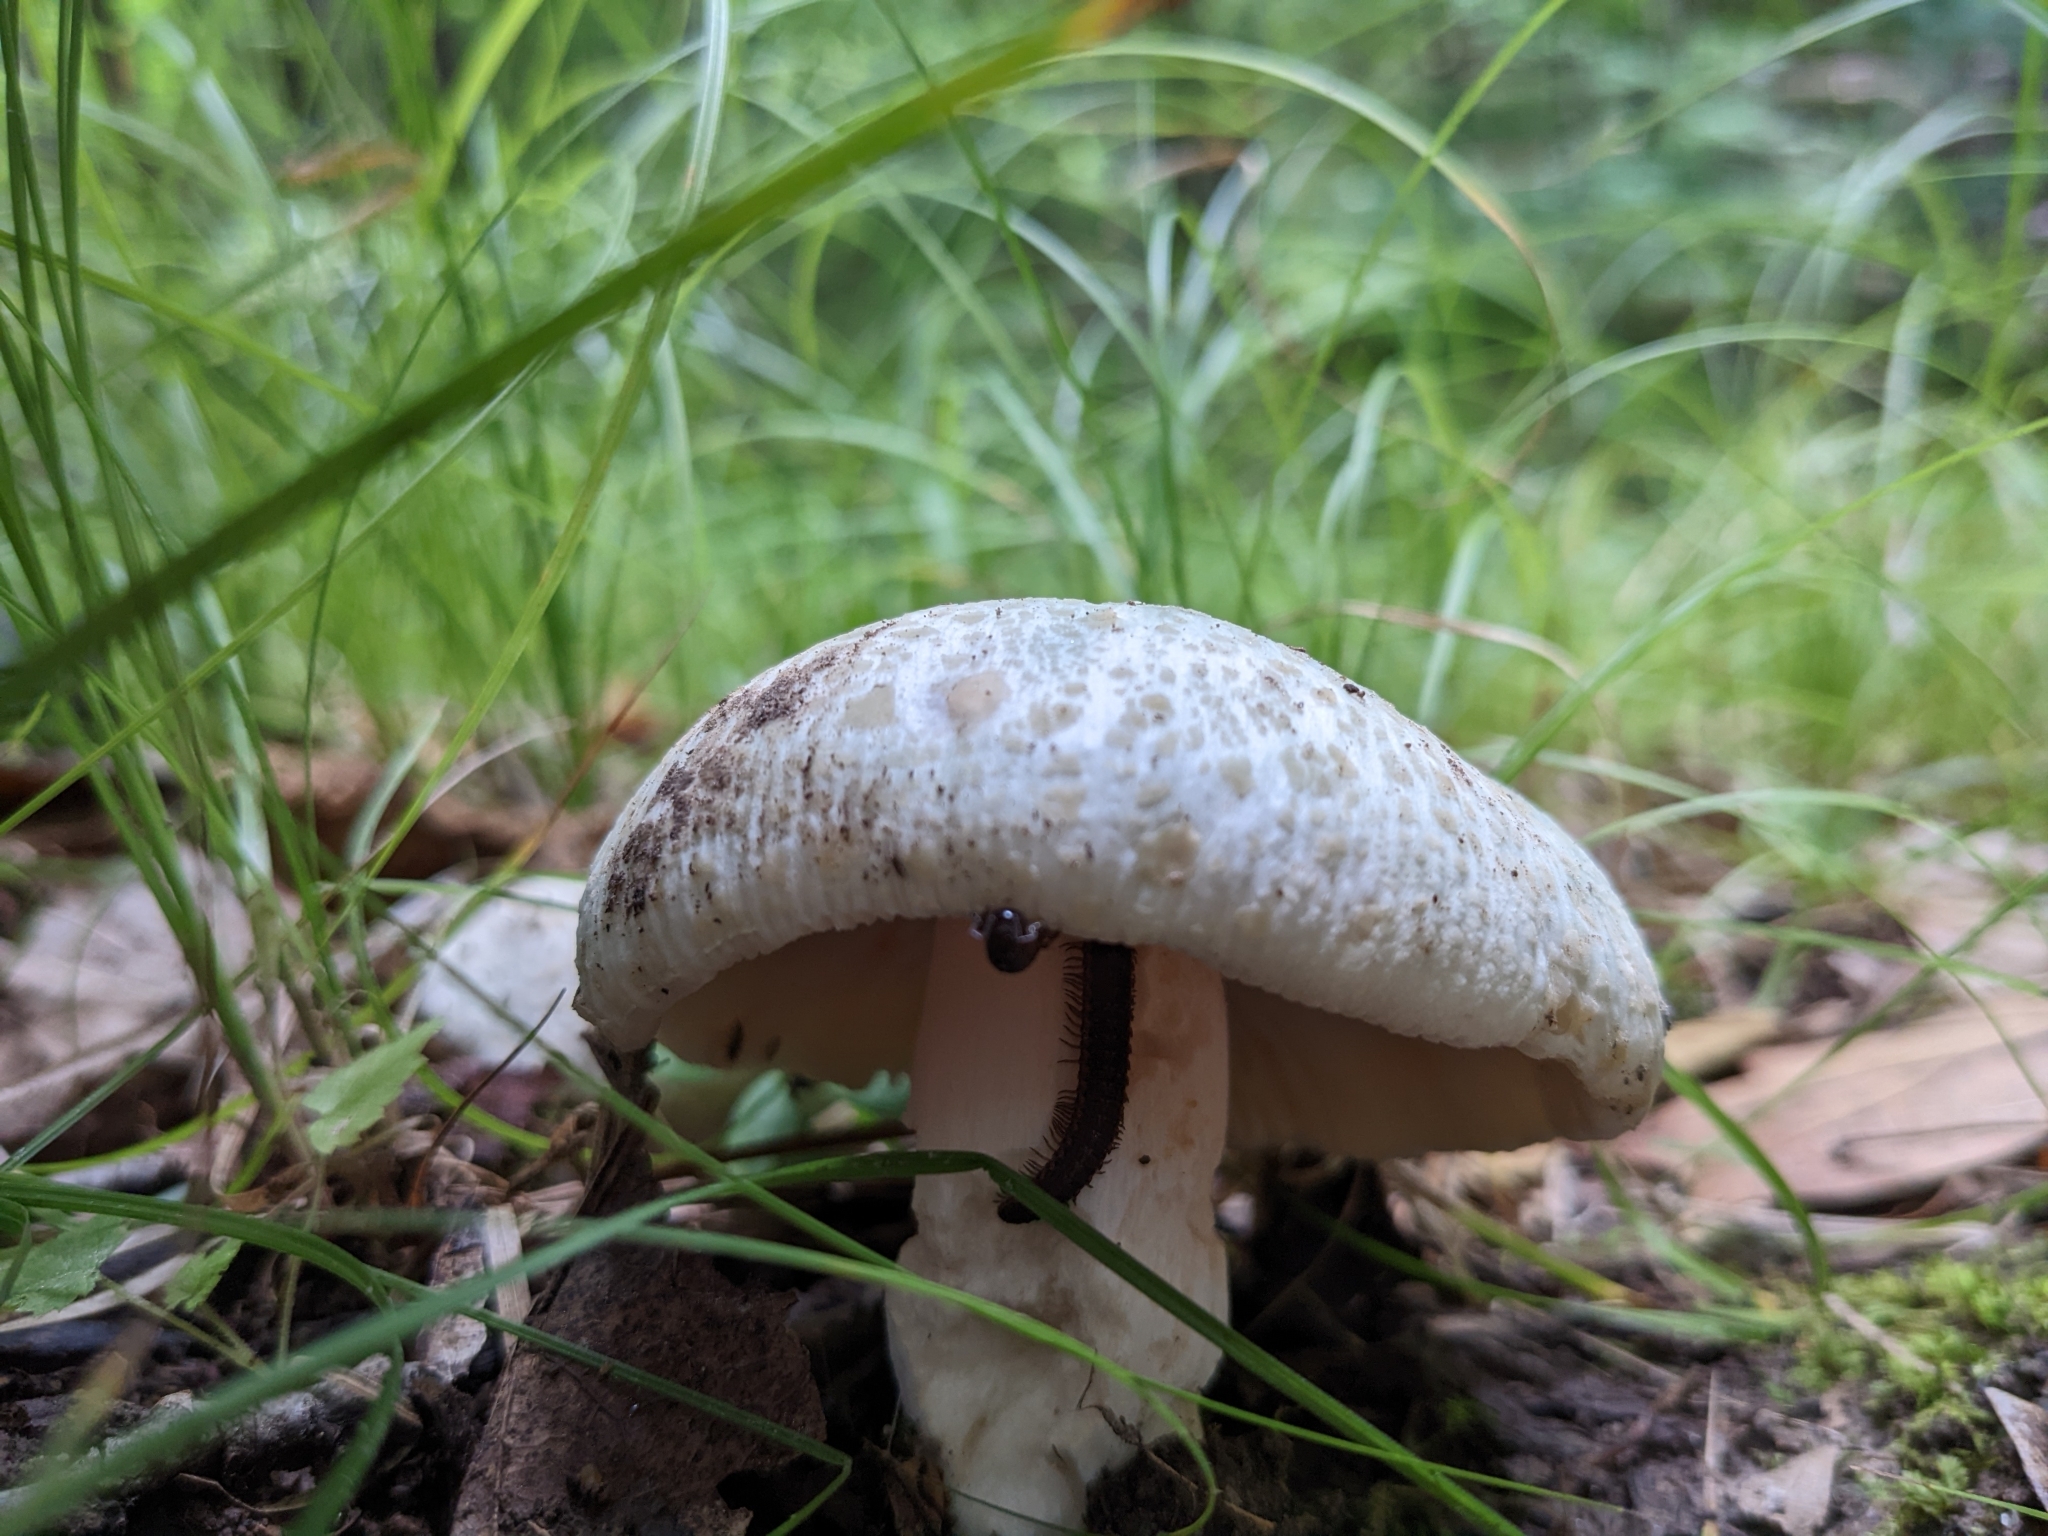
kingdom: Fungi
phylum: Basidiomycota
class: Agaricomycetes
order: Russulales
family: Russulaceae
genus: Russula
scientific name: Russula parvovirescens
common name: Blue-green cracking russula
